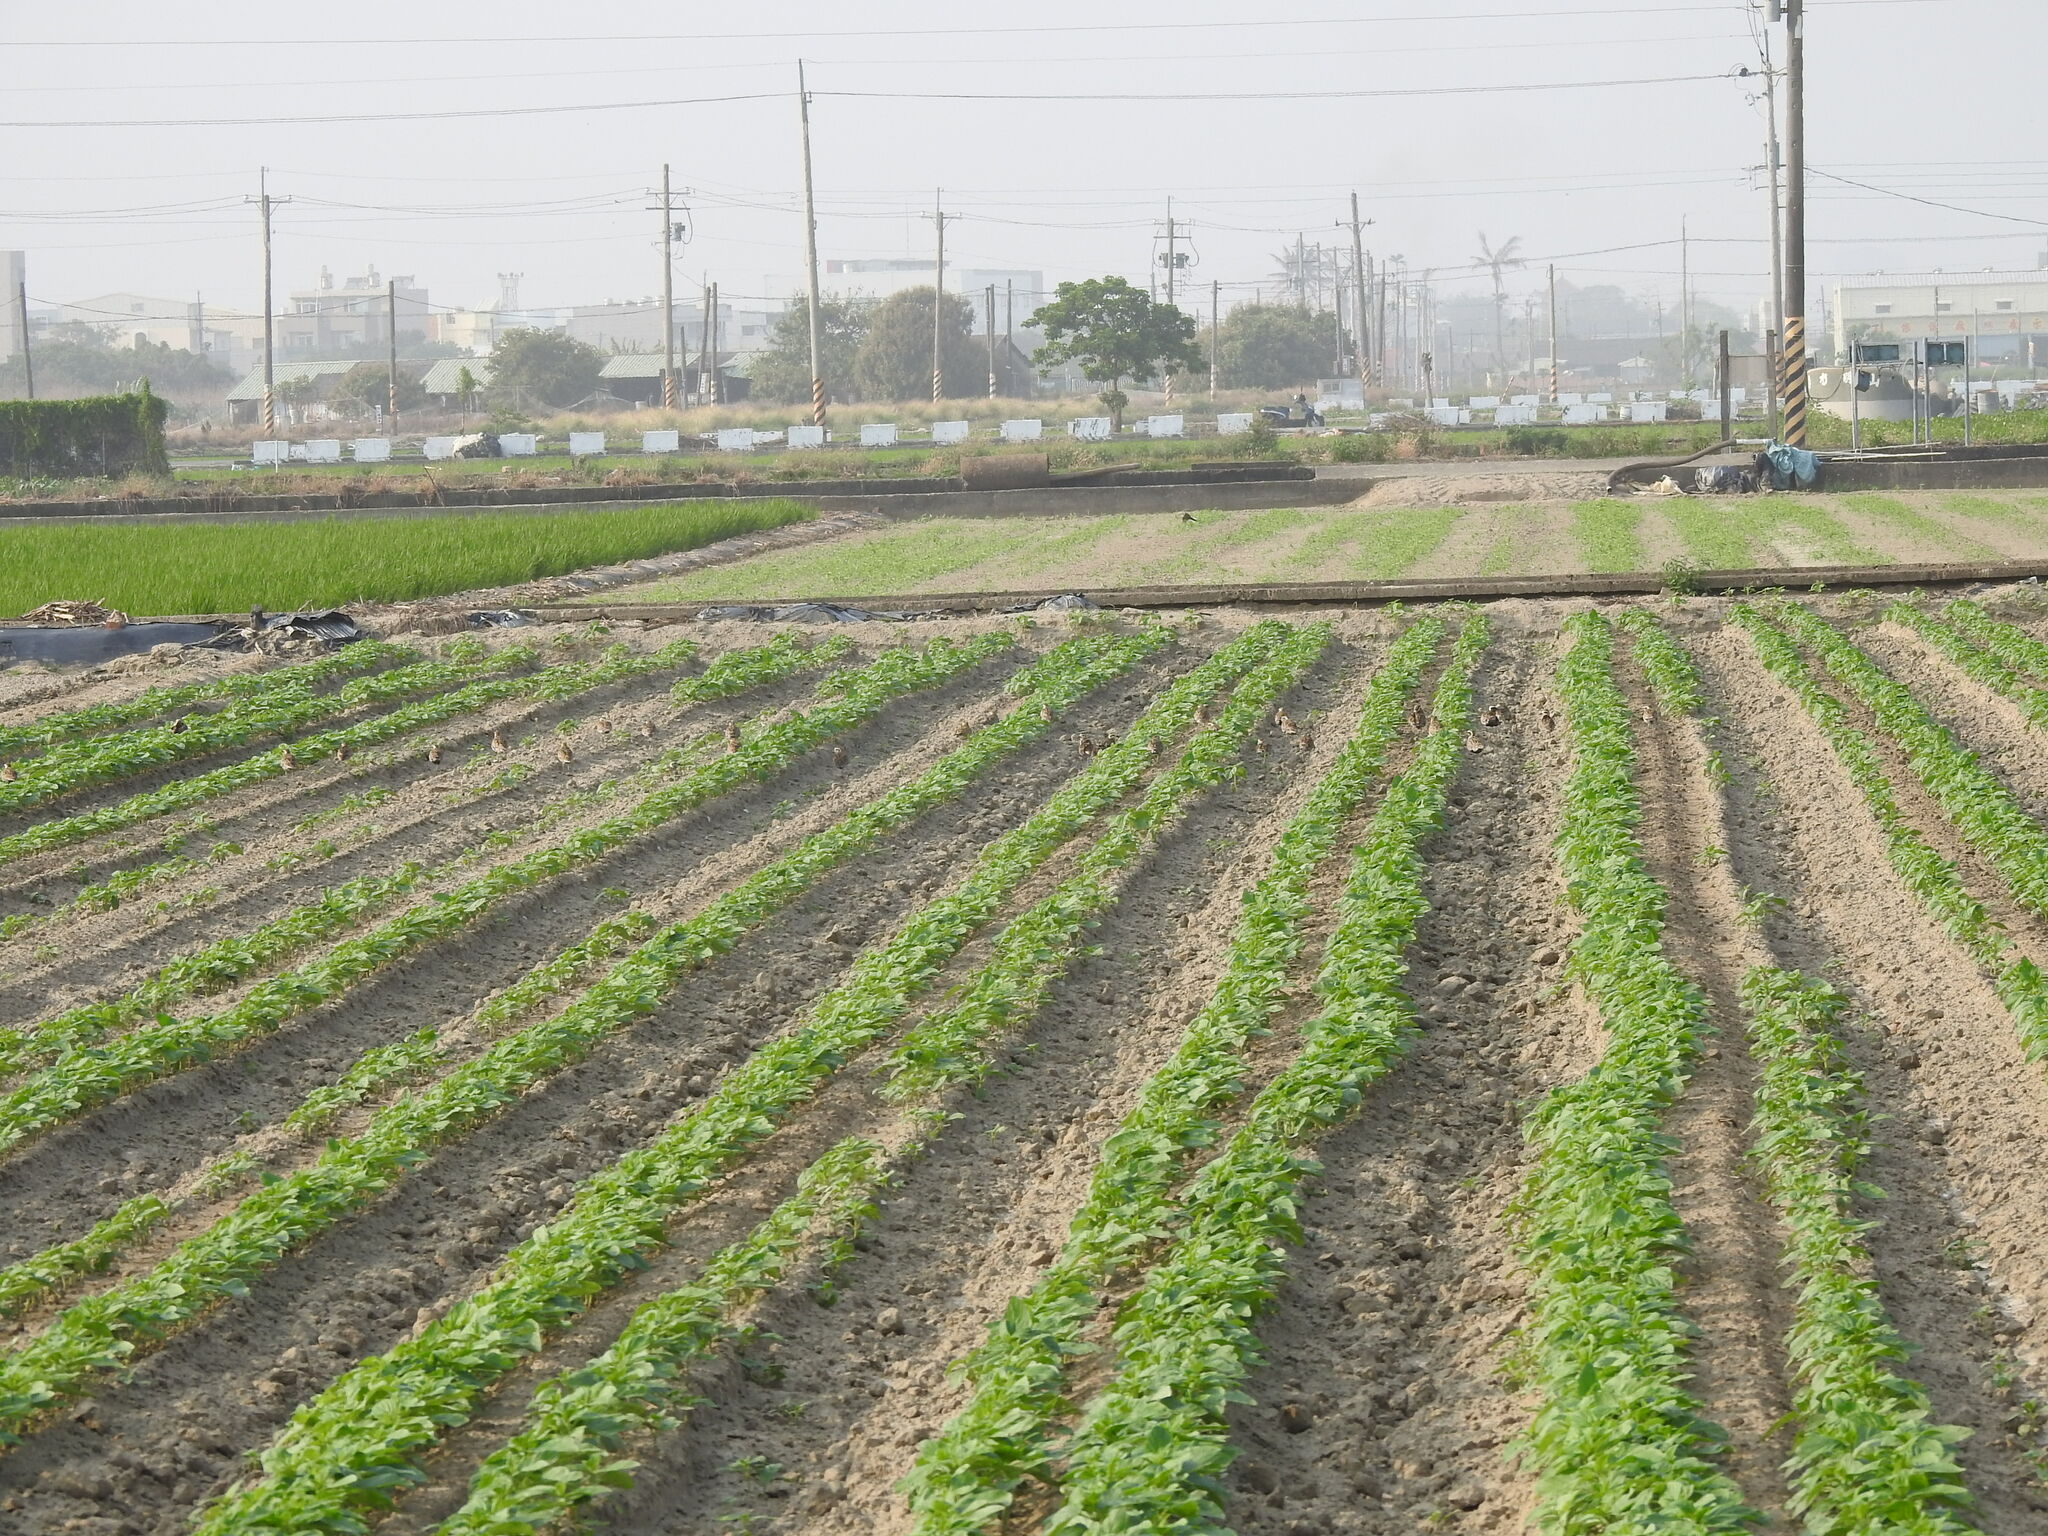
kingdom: Animalia
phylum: Chordata
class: Aves
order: Charadriiformes
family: Charadriidae
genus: Pluvialis
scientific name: Pluvialis fulva
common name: Pacific golden plover
